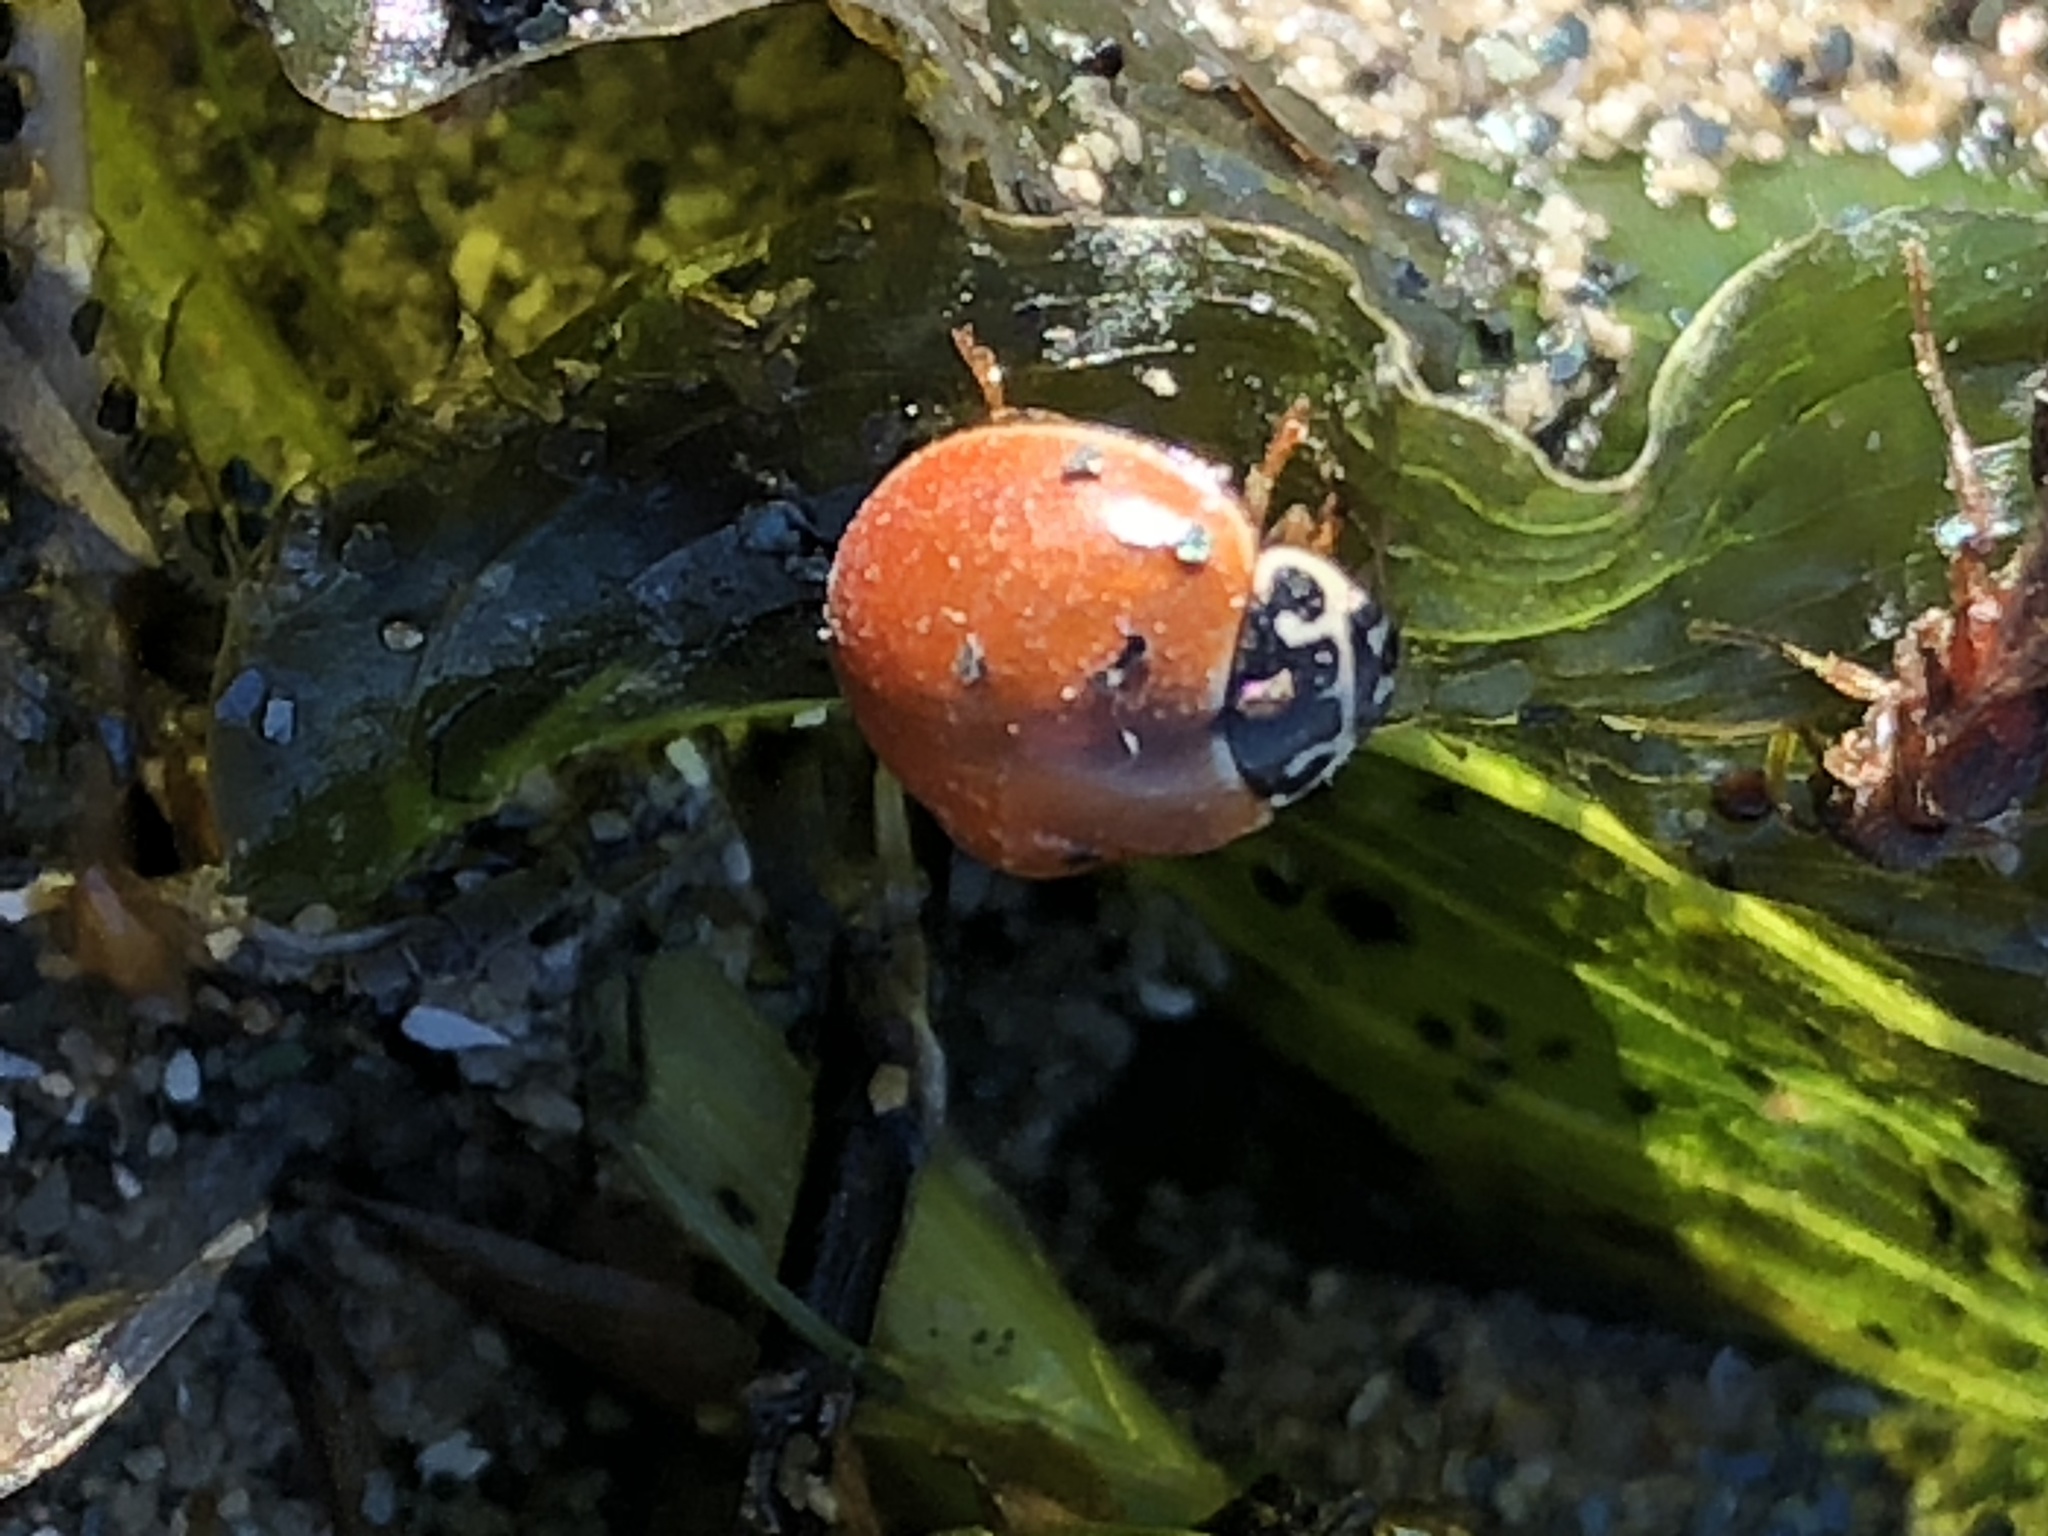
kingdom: Animalia
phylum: Arthropoda
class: Insecta
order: Coleoptera
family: Coccinellidae
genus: Cycloneda
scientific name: Cycloneda munda
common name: Polished lady beetle
